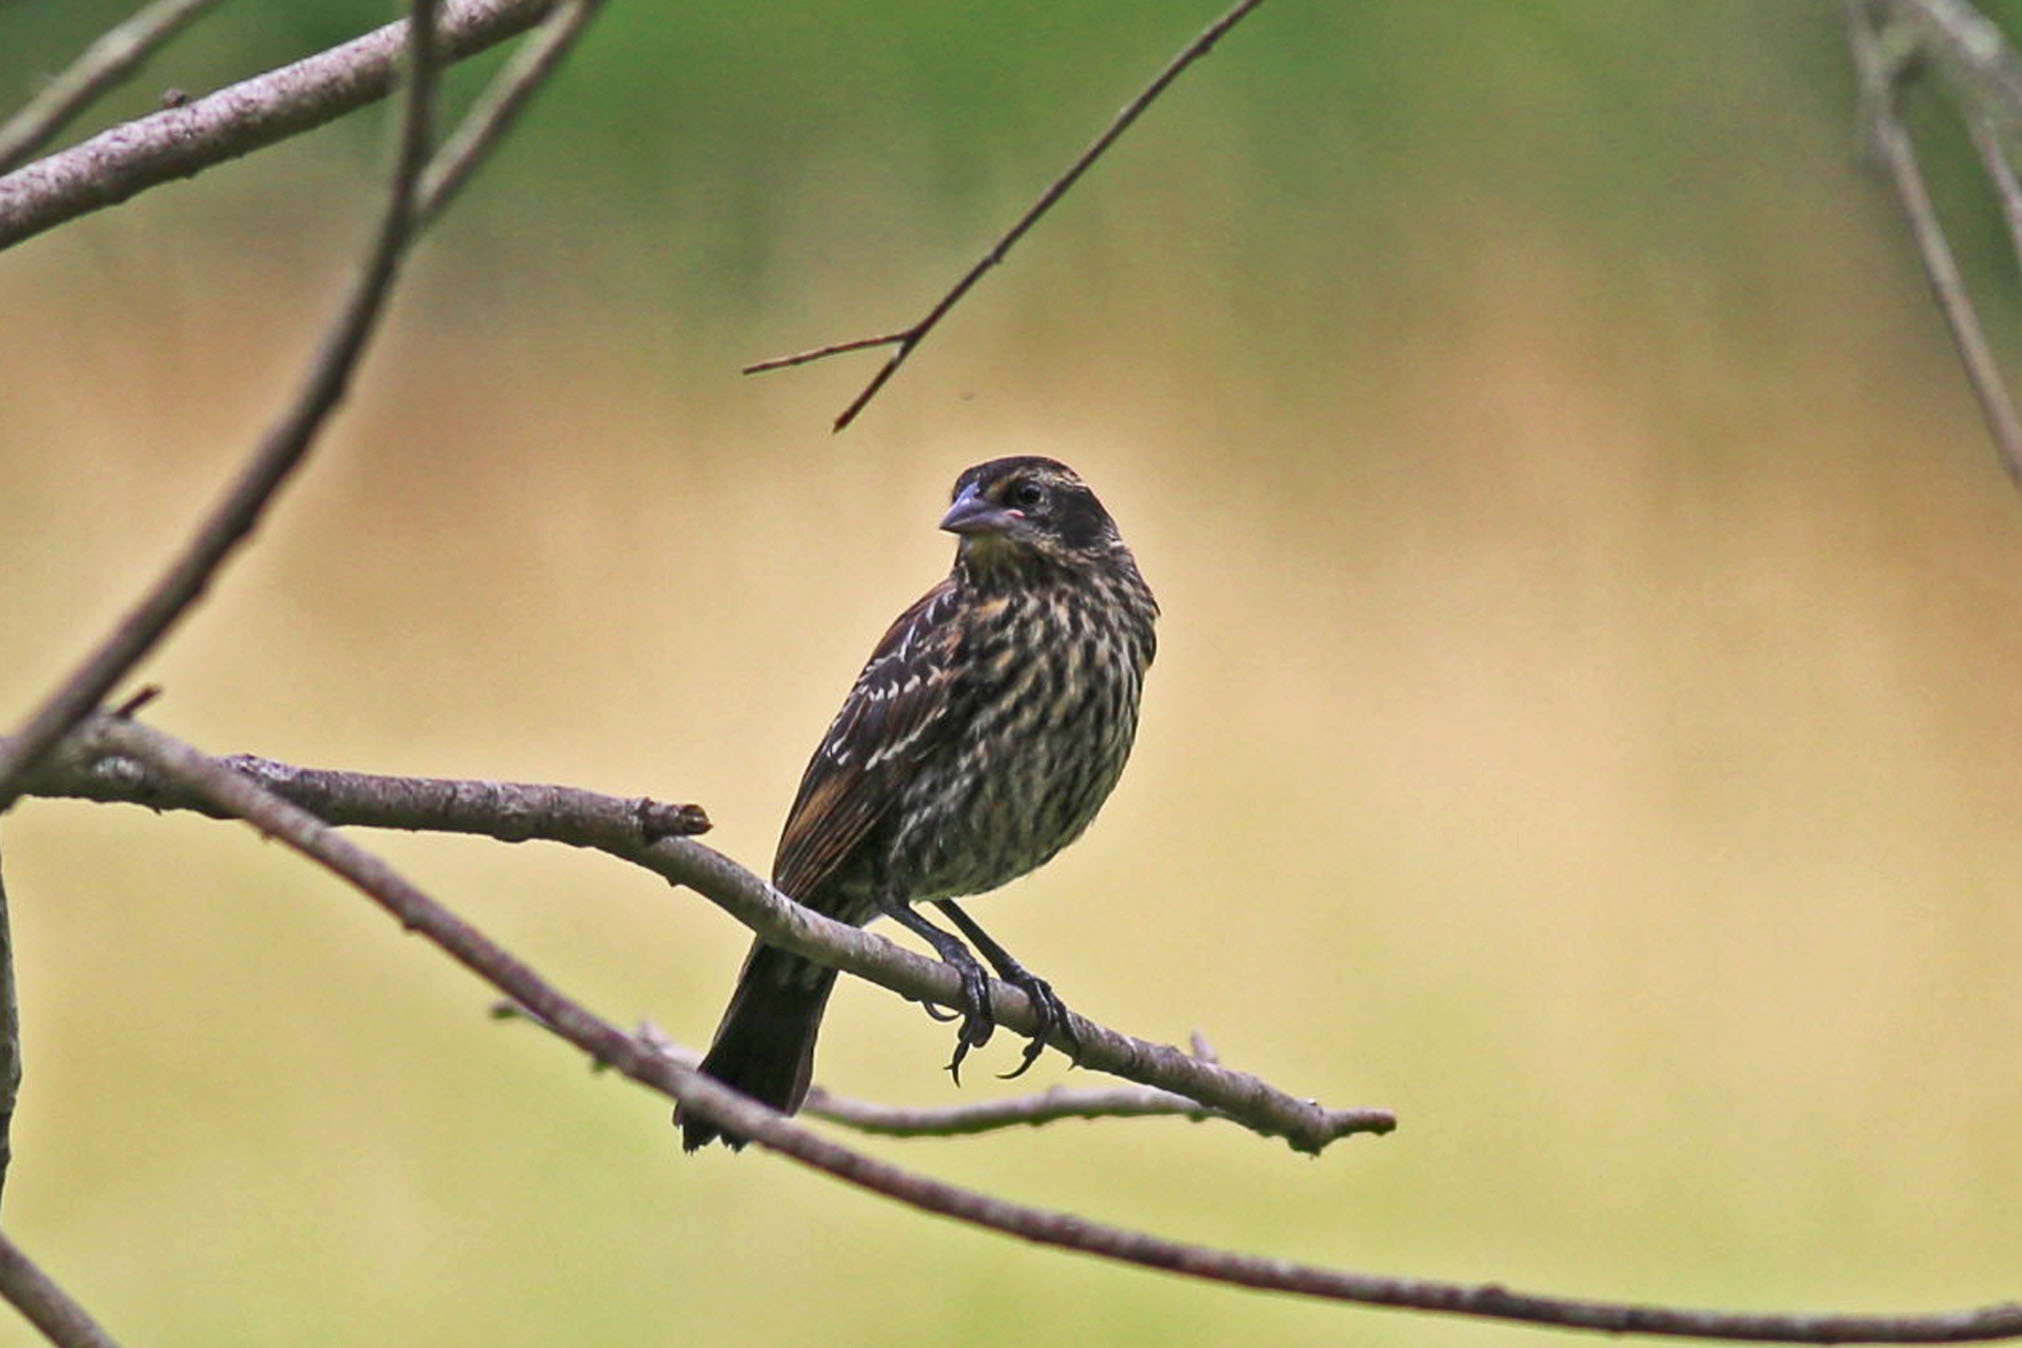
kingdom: Animalia
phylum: Chordata
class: Aves
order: Passeriformes
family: Icteridae
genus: Agelaius
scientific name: Agelaius phoeniceus
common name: Red-winged blackbird
